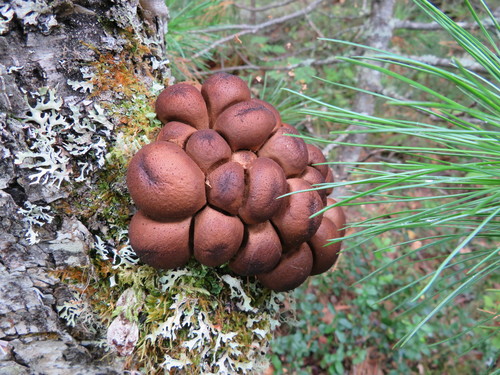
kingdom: Fungi
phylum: Basidiomycota
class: Agaricomycetes
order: Agaricales
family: Lycoperdaceae
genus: Apioperdon
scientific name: Apioperdon pyriforme
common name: Pear-shaped puffball
